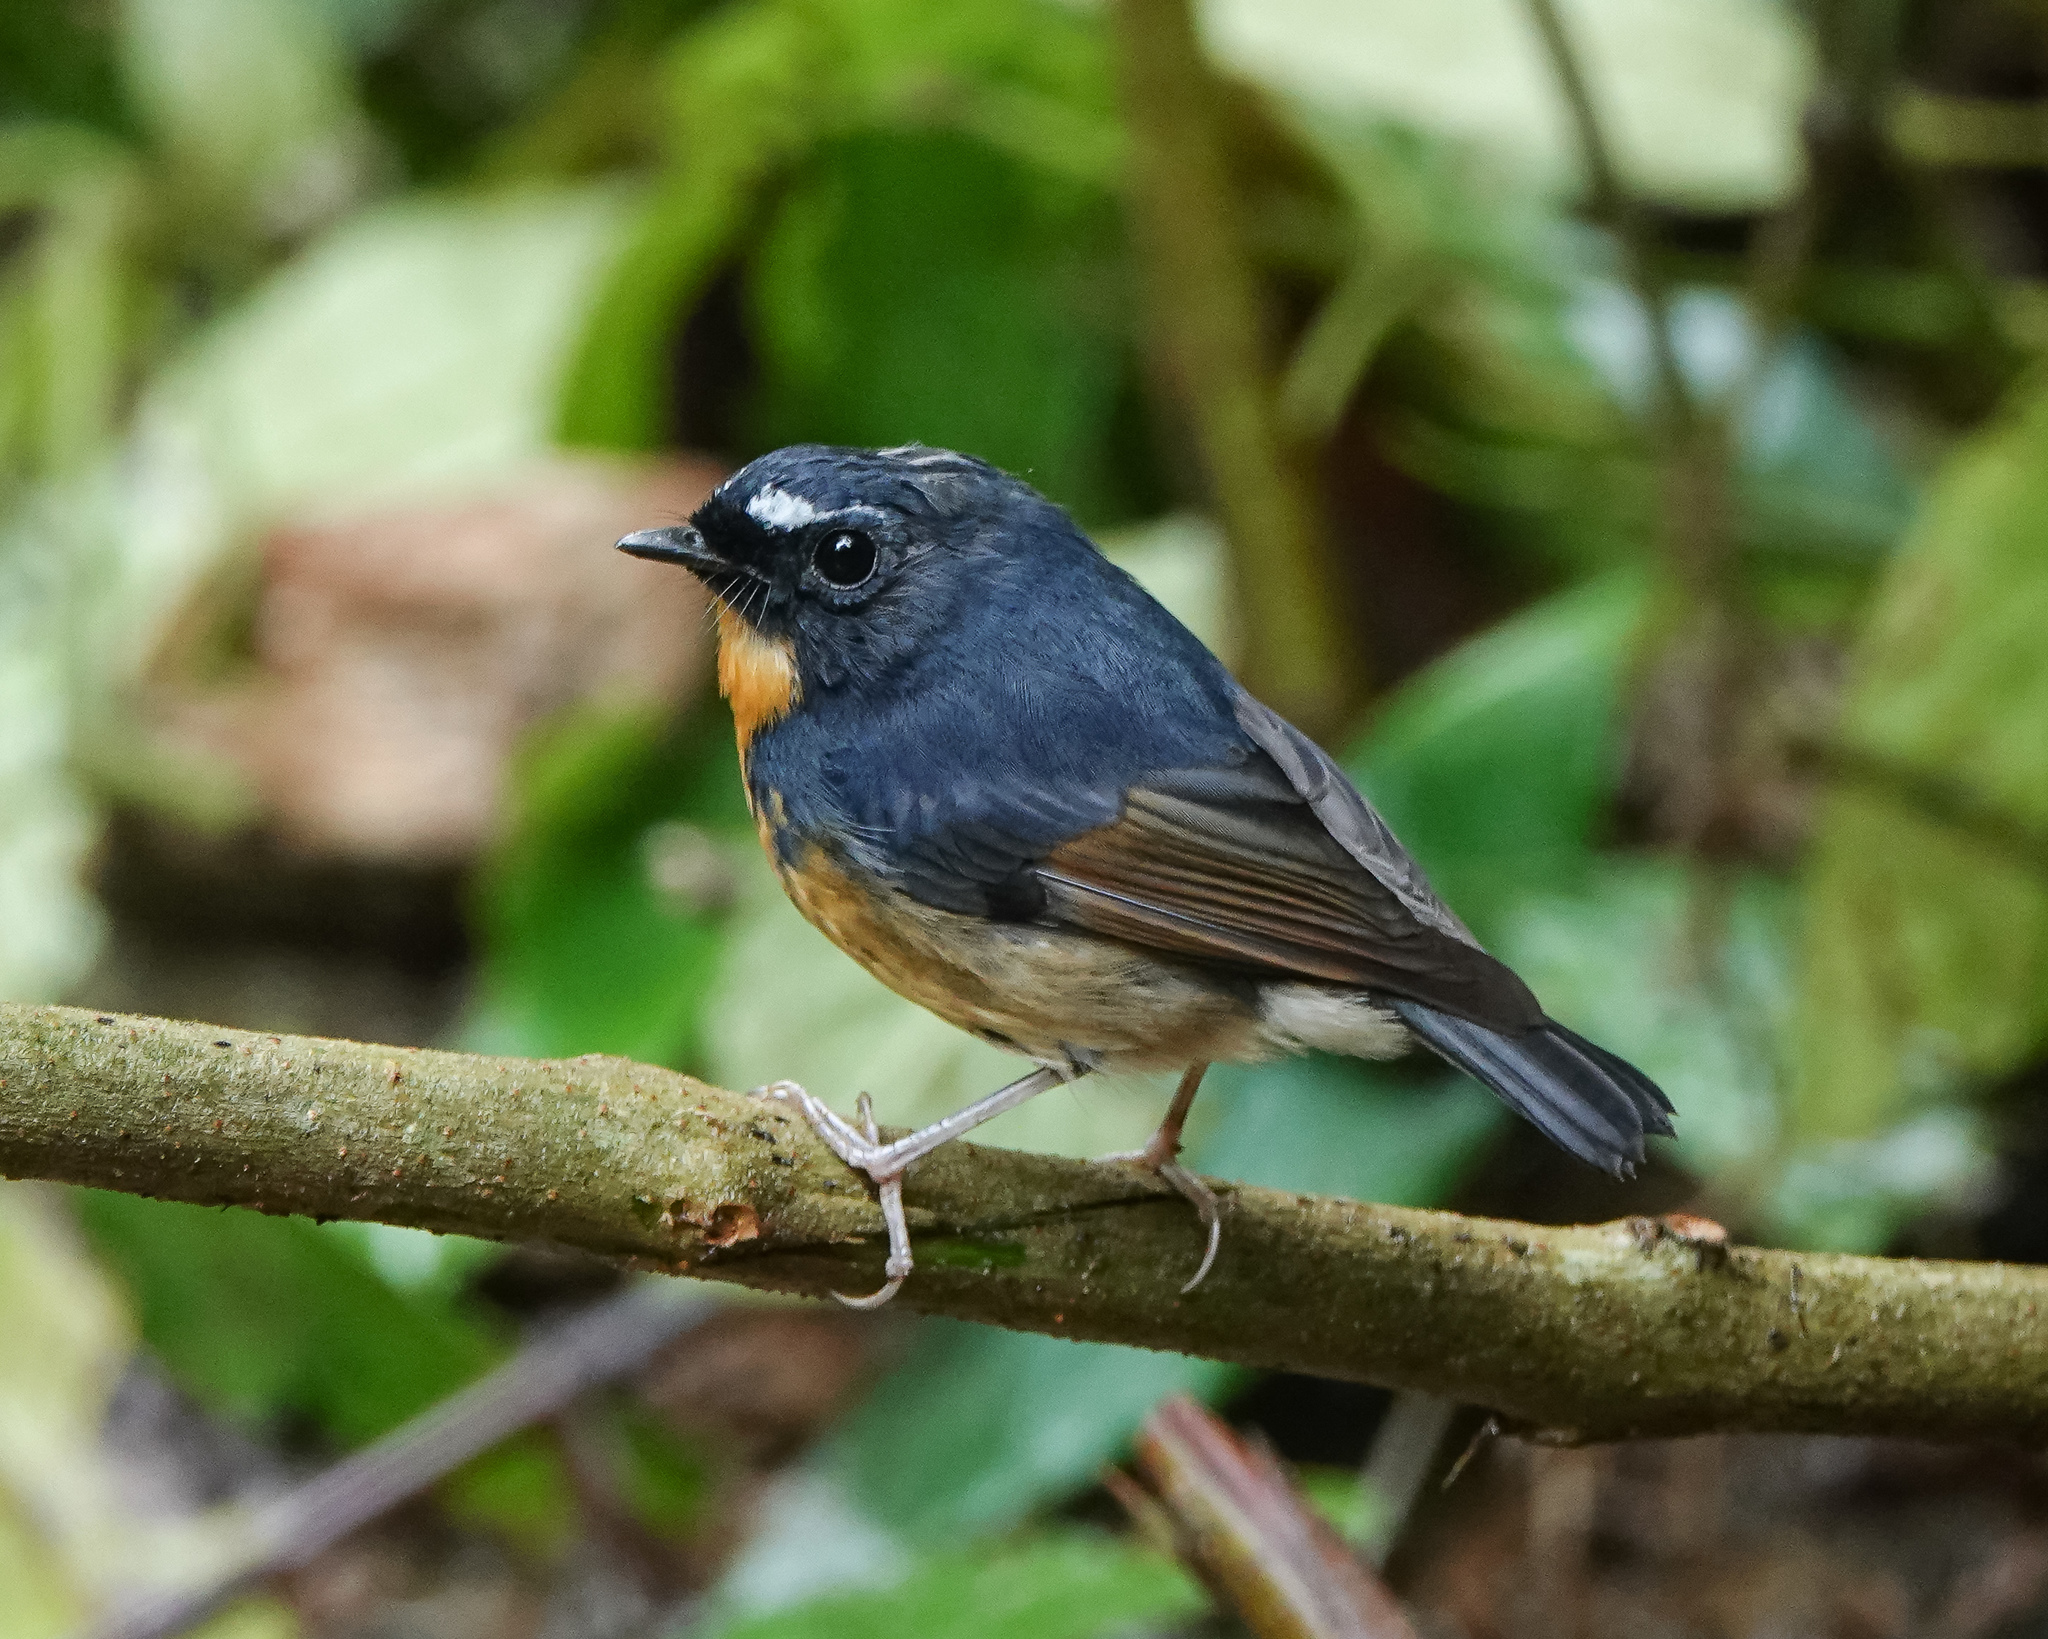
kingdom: Animalia
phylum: Chordata
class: Aves
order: Passeriformes
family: Muscicapidae
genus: Ficedula
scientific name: Ficedula hyperythra
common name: Snowy-browed flycatcher
